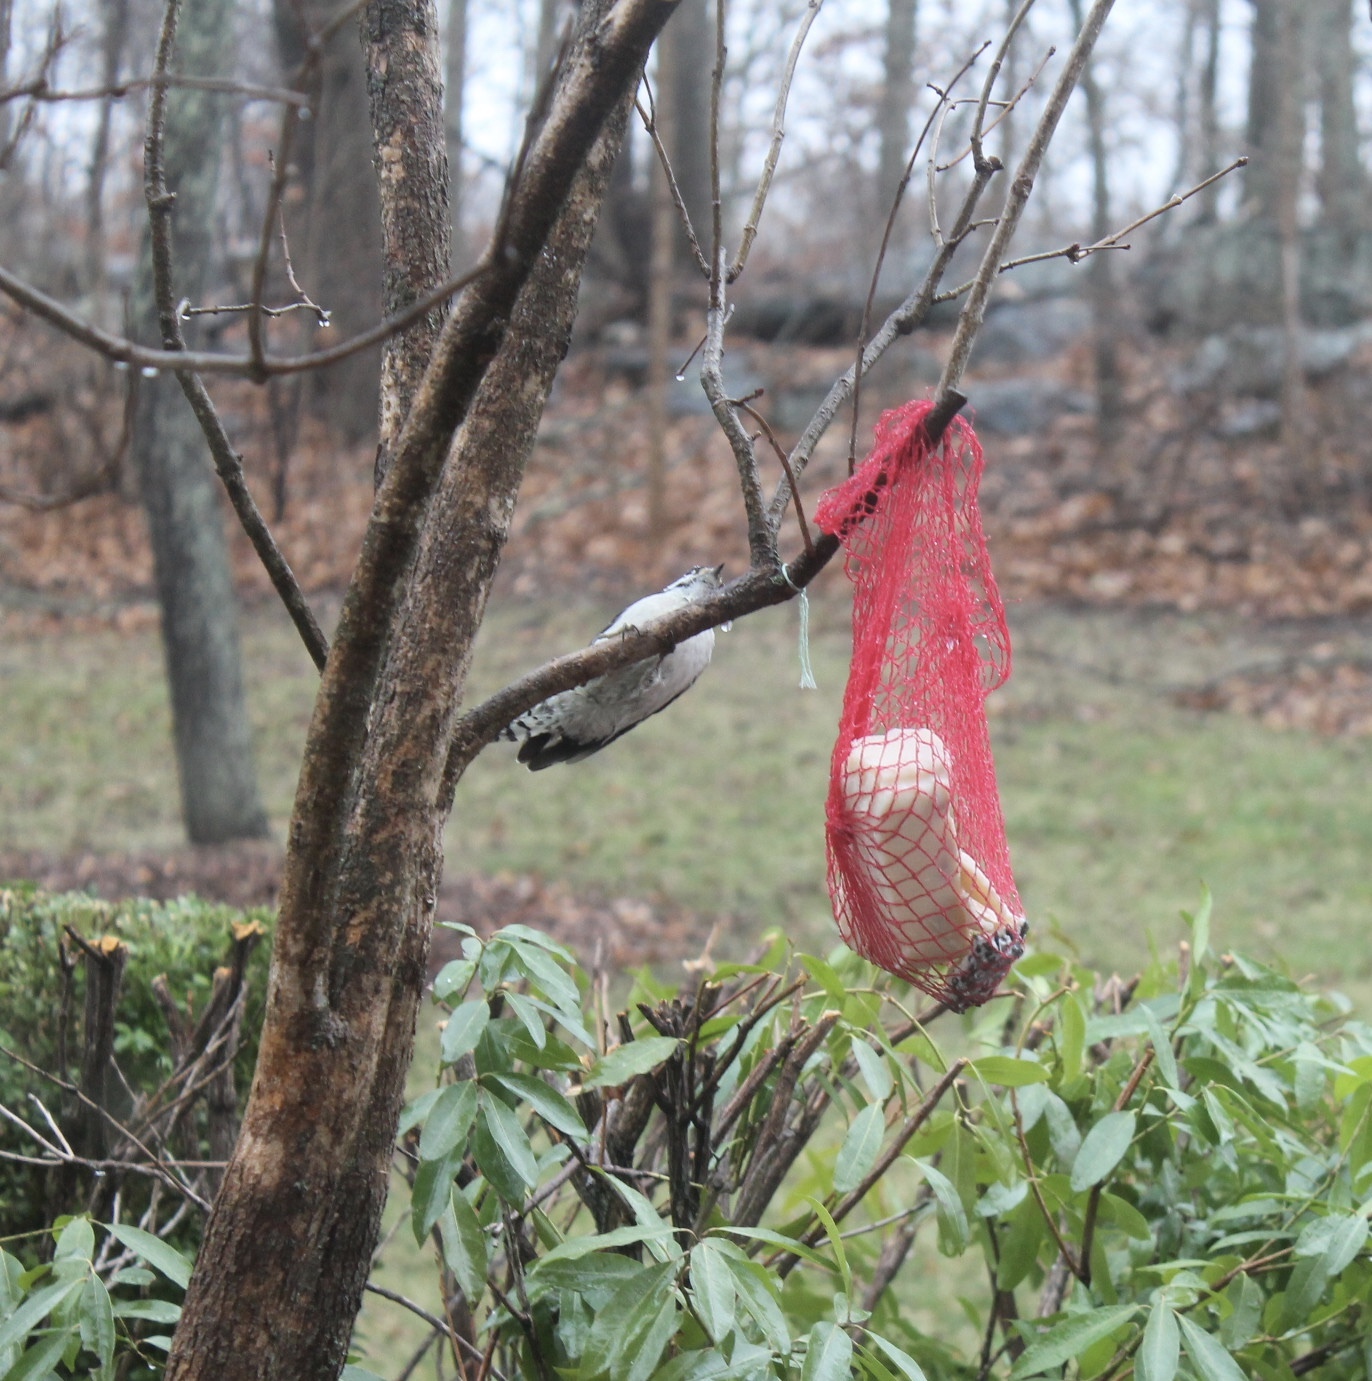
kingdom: Animalia
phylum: Chordata
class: Aves
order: Piciformes
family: Picidae
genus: Dryobates
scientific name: Dryobates pubescens
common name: Downy woodpecker
